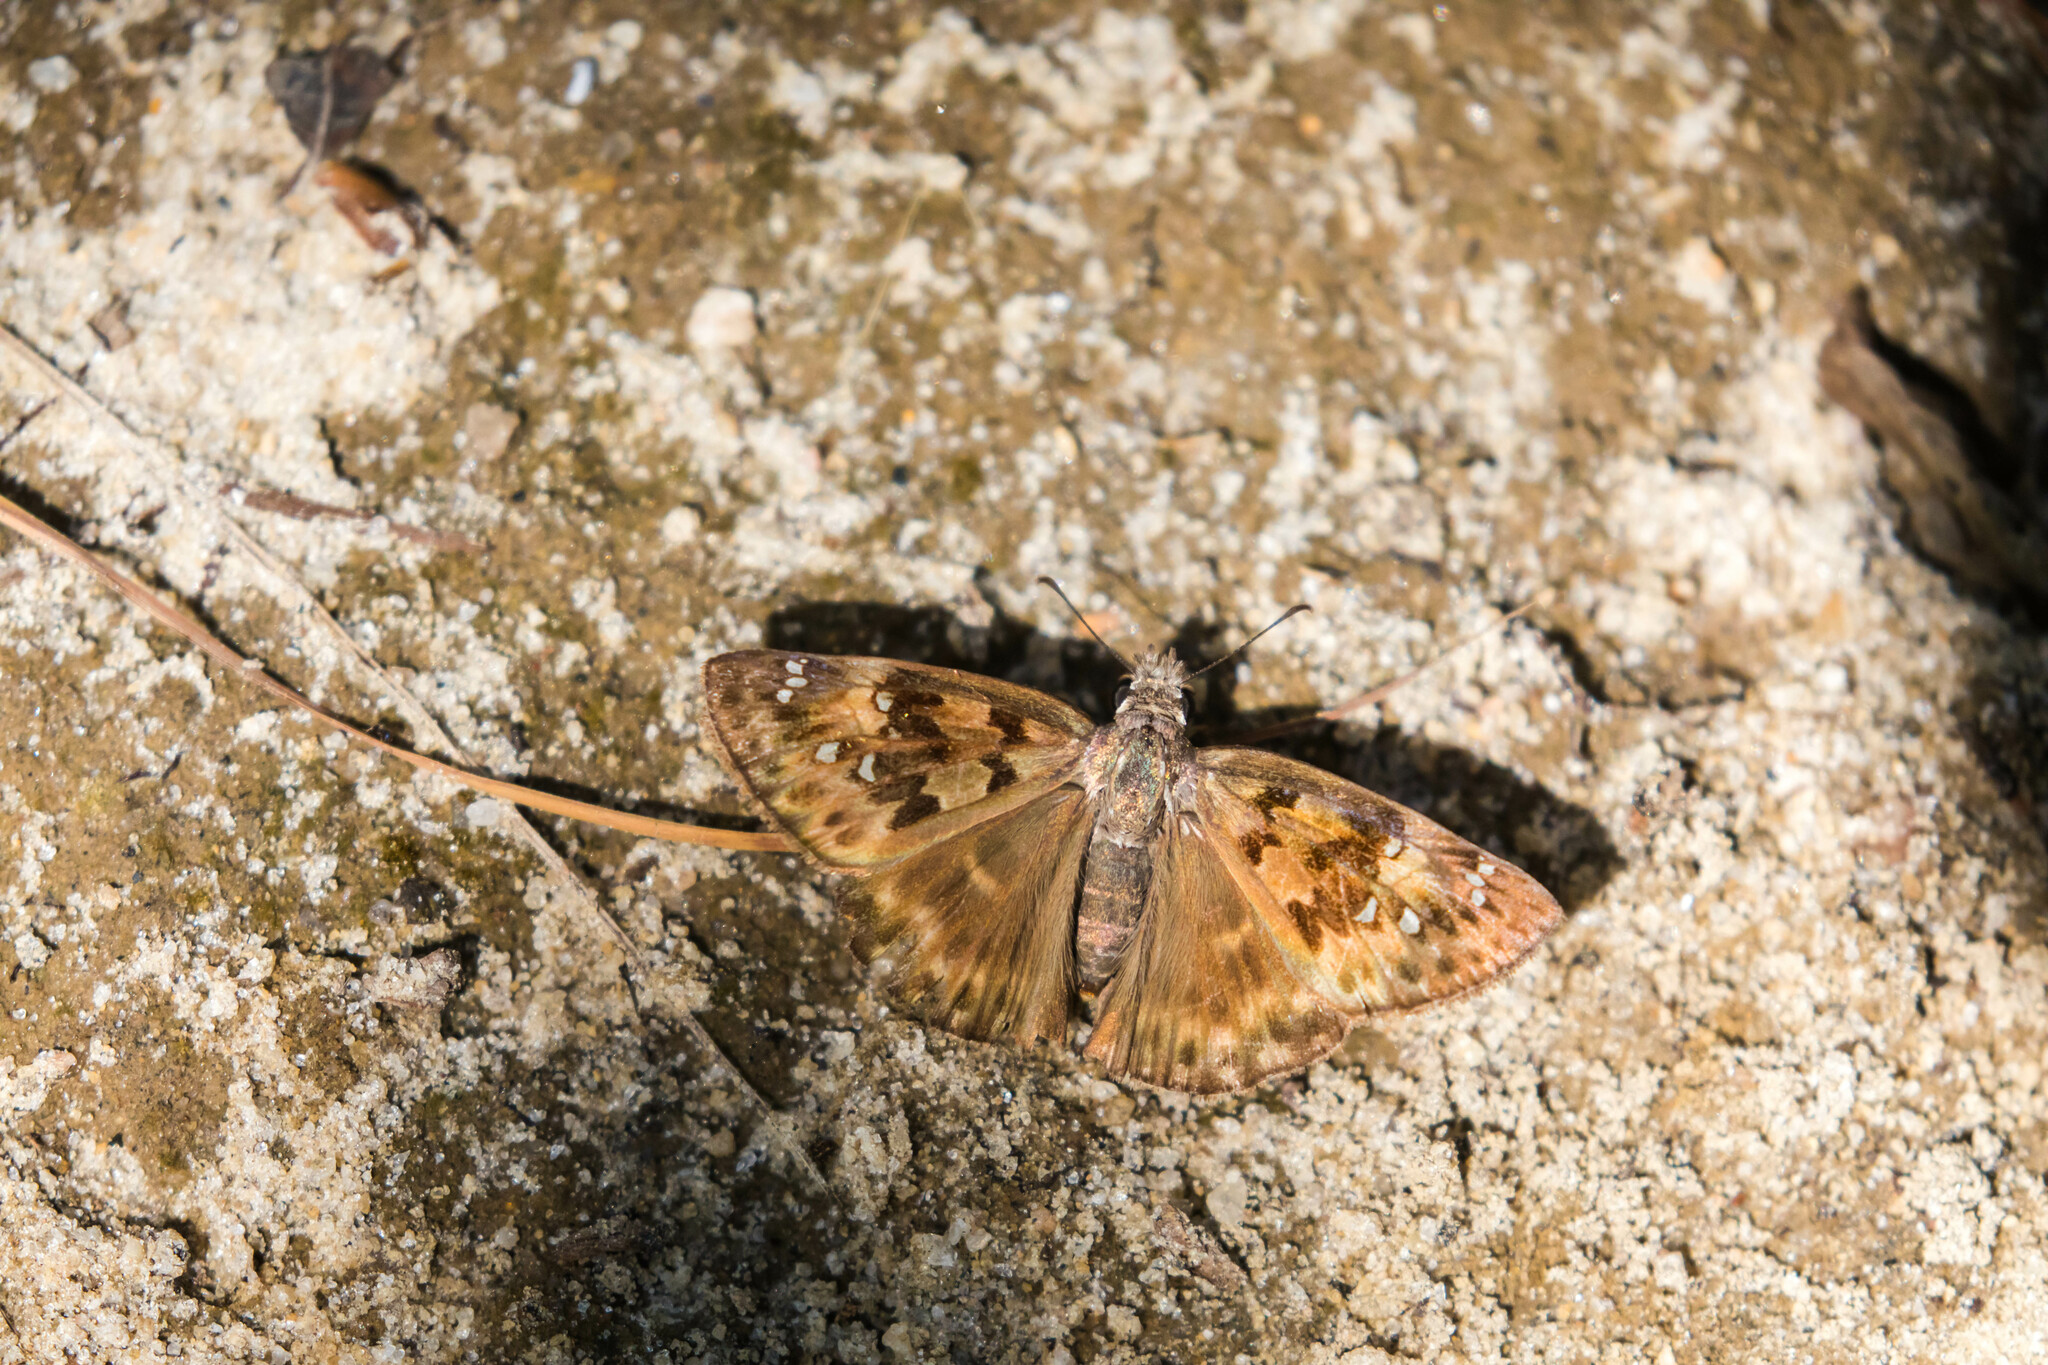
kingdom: Animalia
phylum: Arthropoda
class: Insecta
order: Lepidoptera
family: Hesperiidae
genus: Erynnis
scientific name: Erynnis horatius
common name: Horace's duskywing
